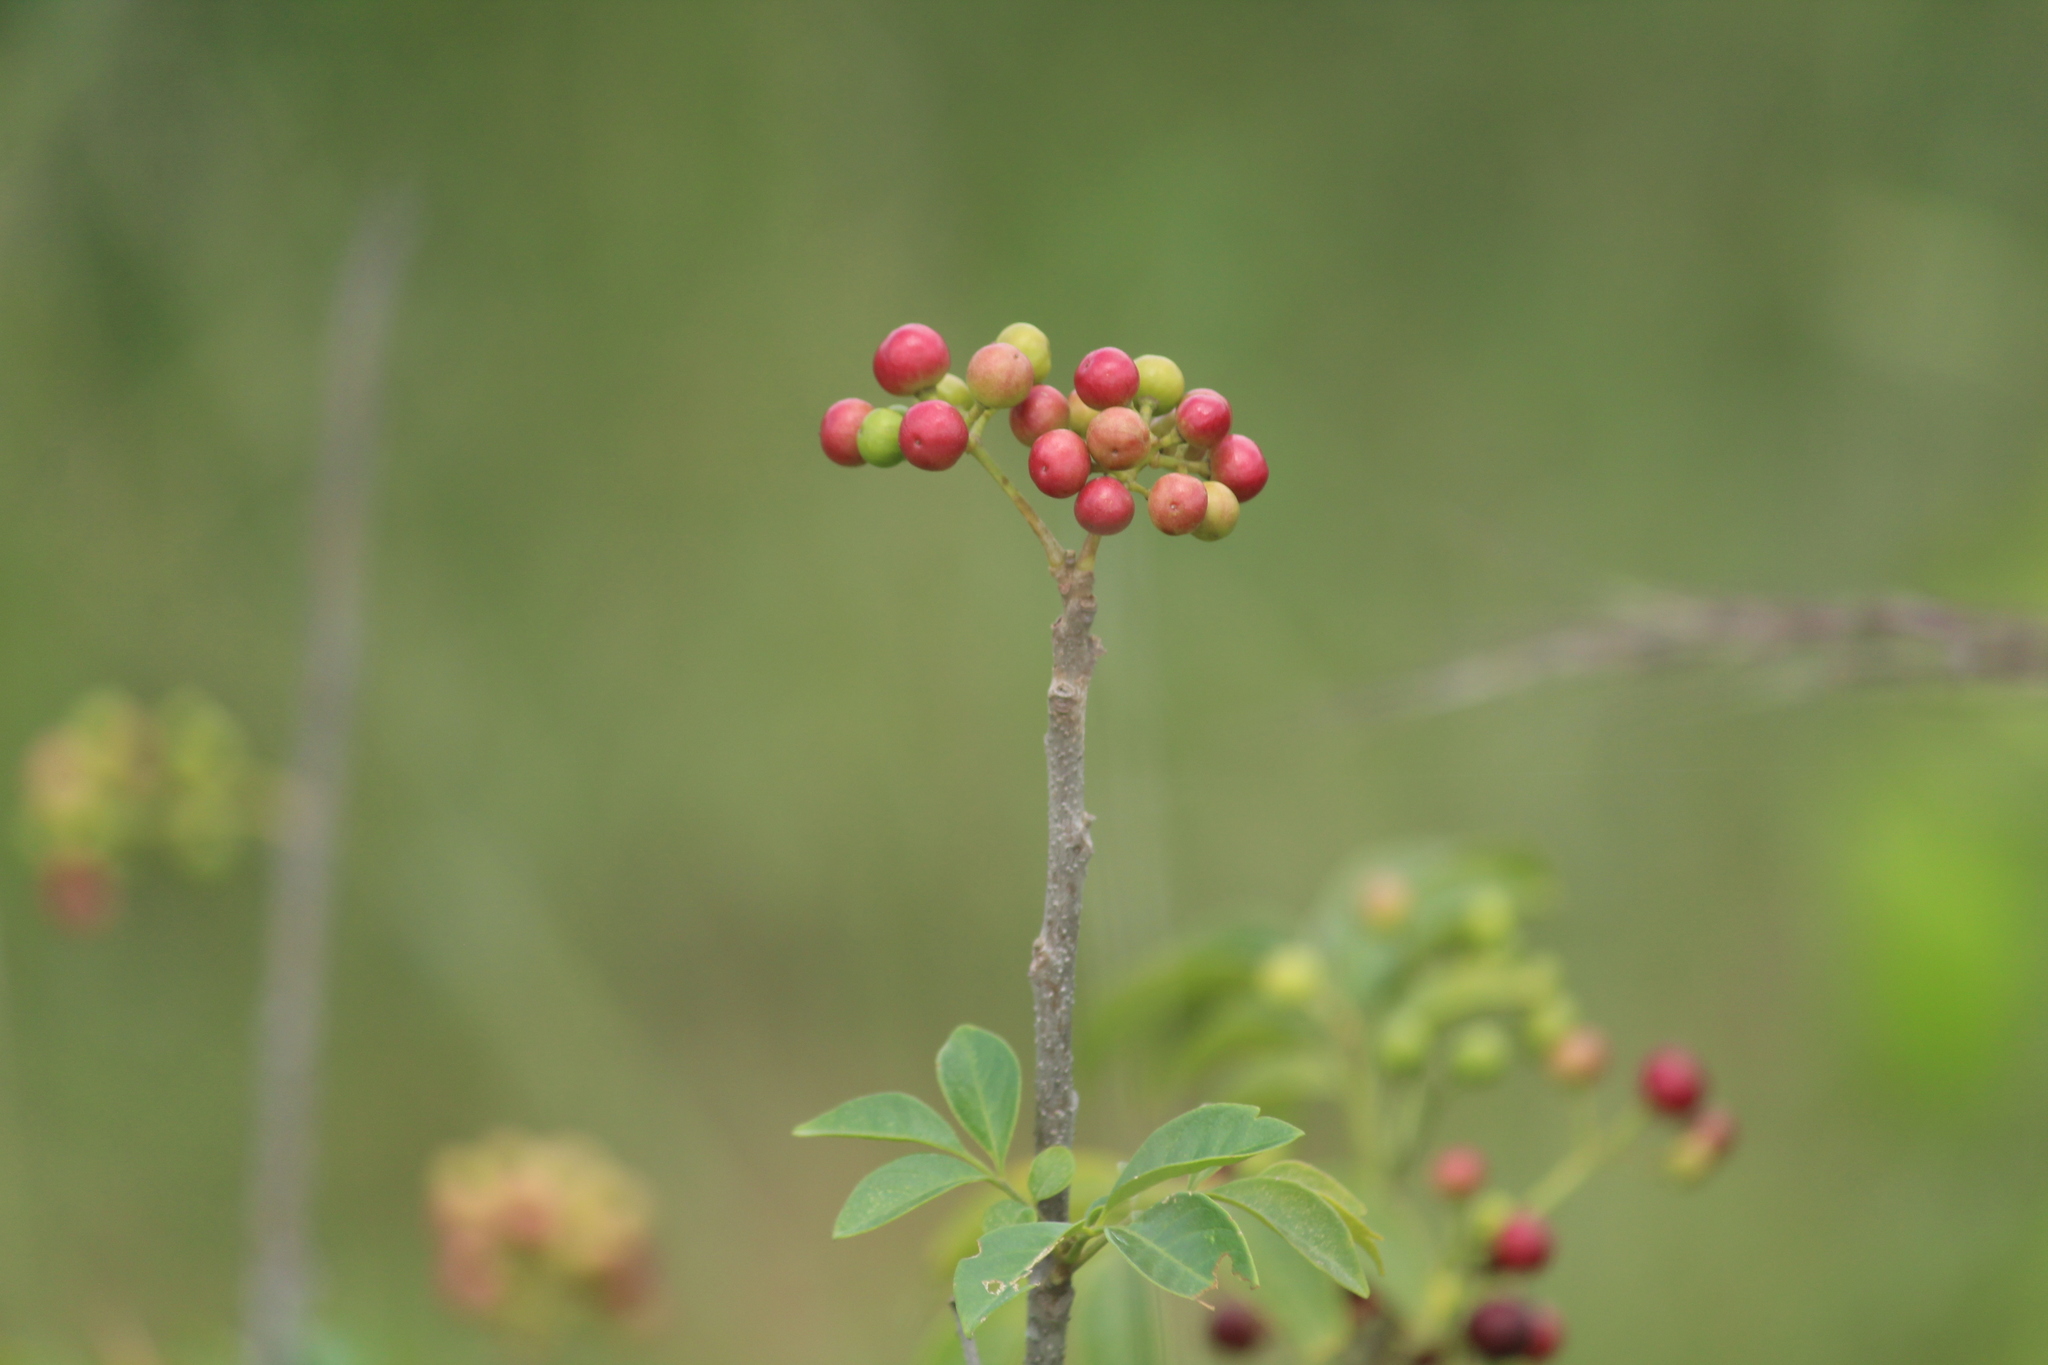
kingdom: Plantae
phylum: Tracheophyta
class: Magnoliopsida
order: Sapindales
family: Meliaceae
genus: Cipadessa
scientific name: Cipadessa baccifera
